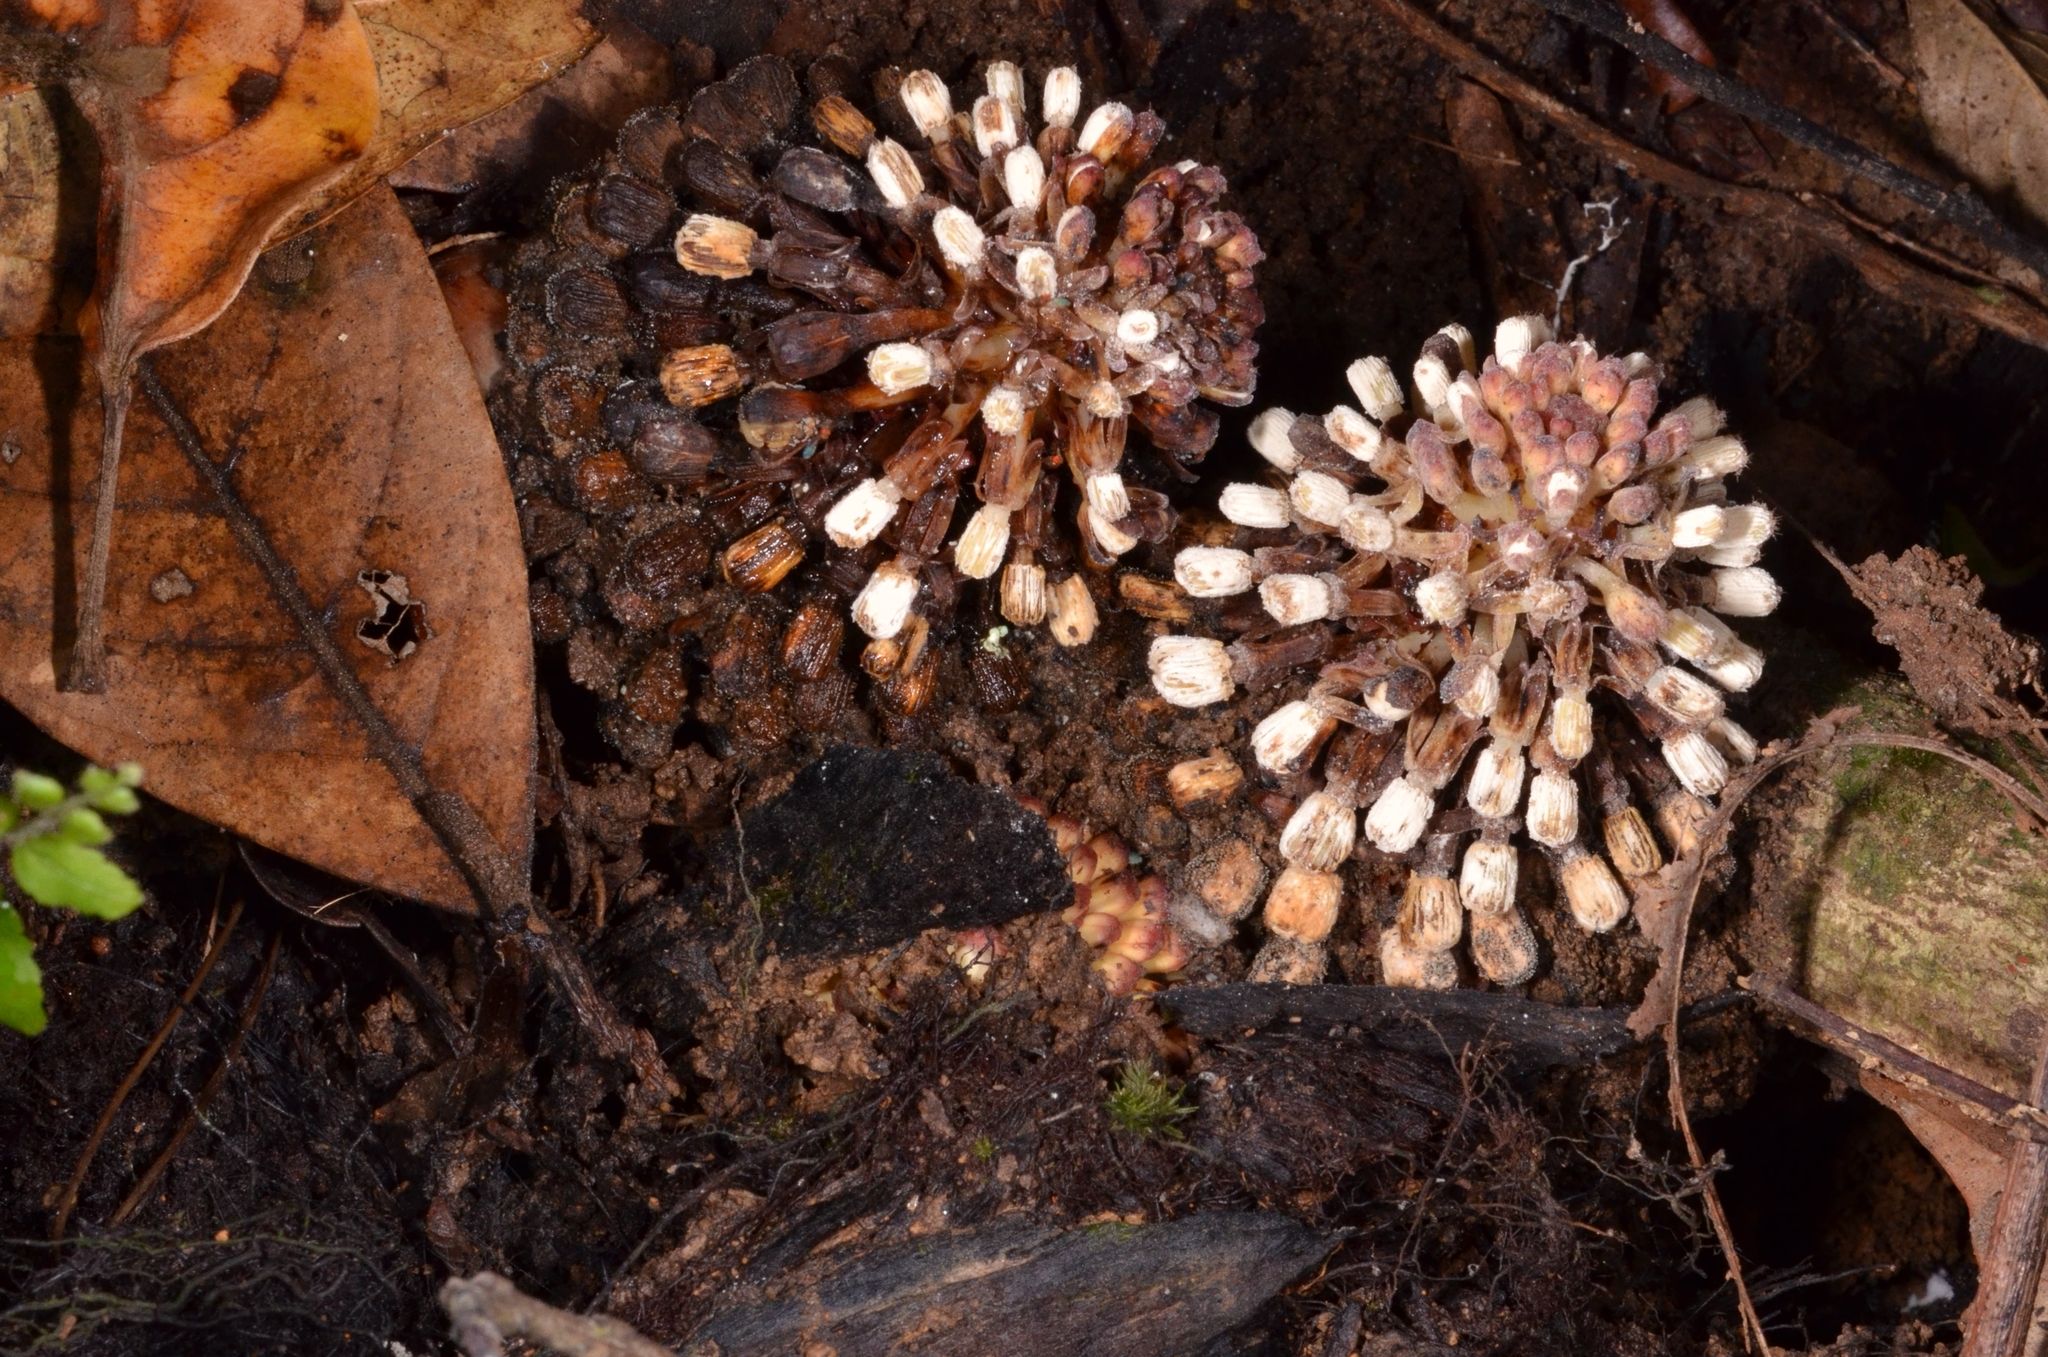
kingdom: Plantae
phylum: Tracheophyta
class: Magnoliopsida
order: Santalales
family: Balanophoraceae
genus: Balanophora
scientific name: Balanophora fungosa
